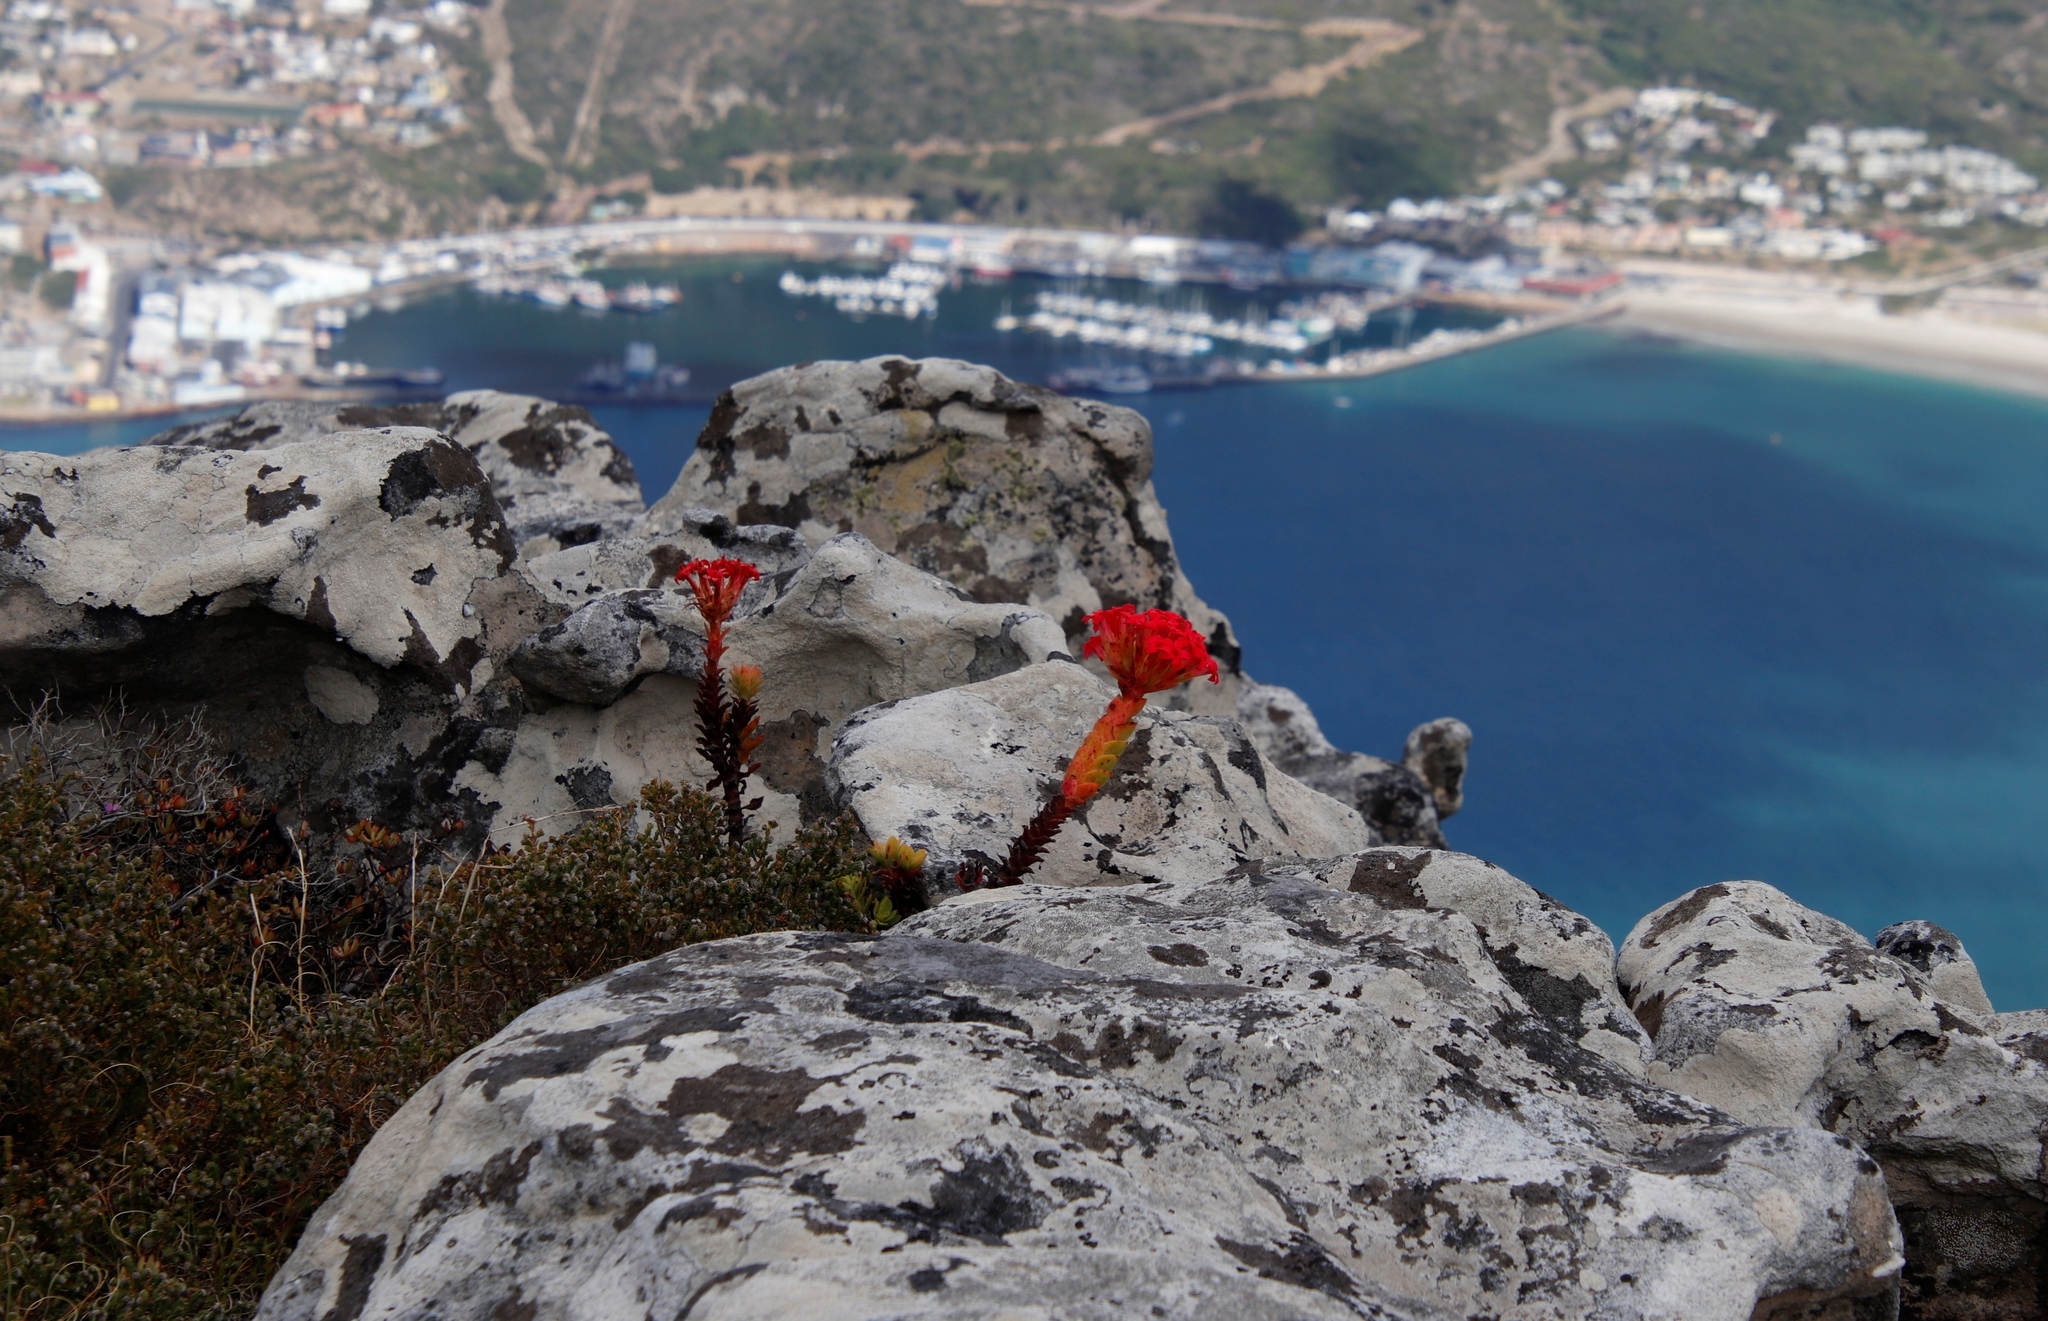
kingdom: Plantae
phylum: Tracheophyta
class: Magnoliopsida
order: Saxifragales
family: Crassulaceae
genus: Crassula
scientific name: Crassula coccinea
